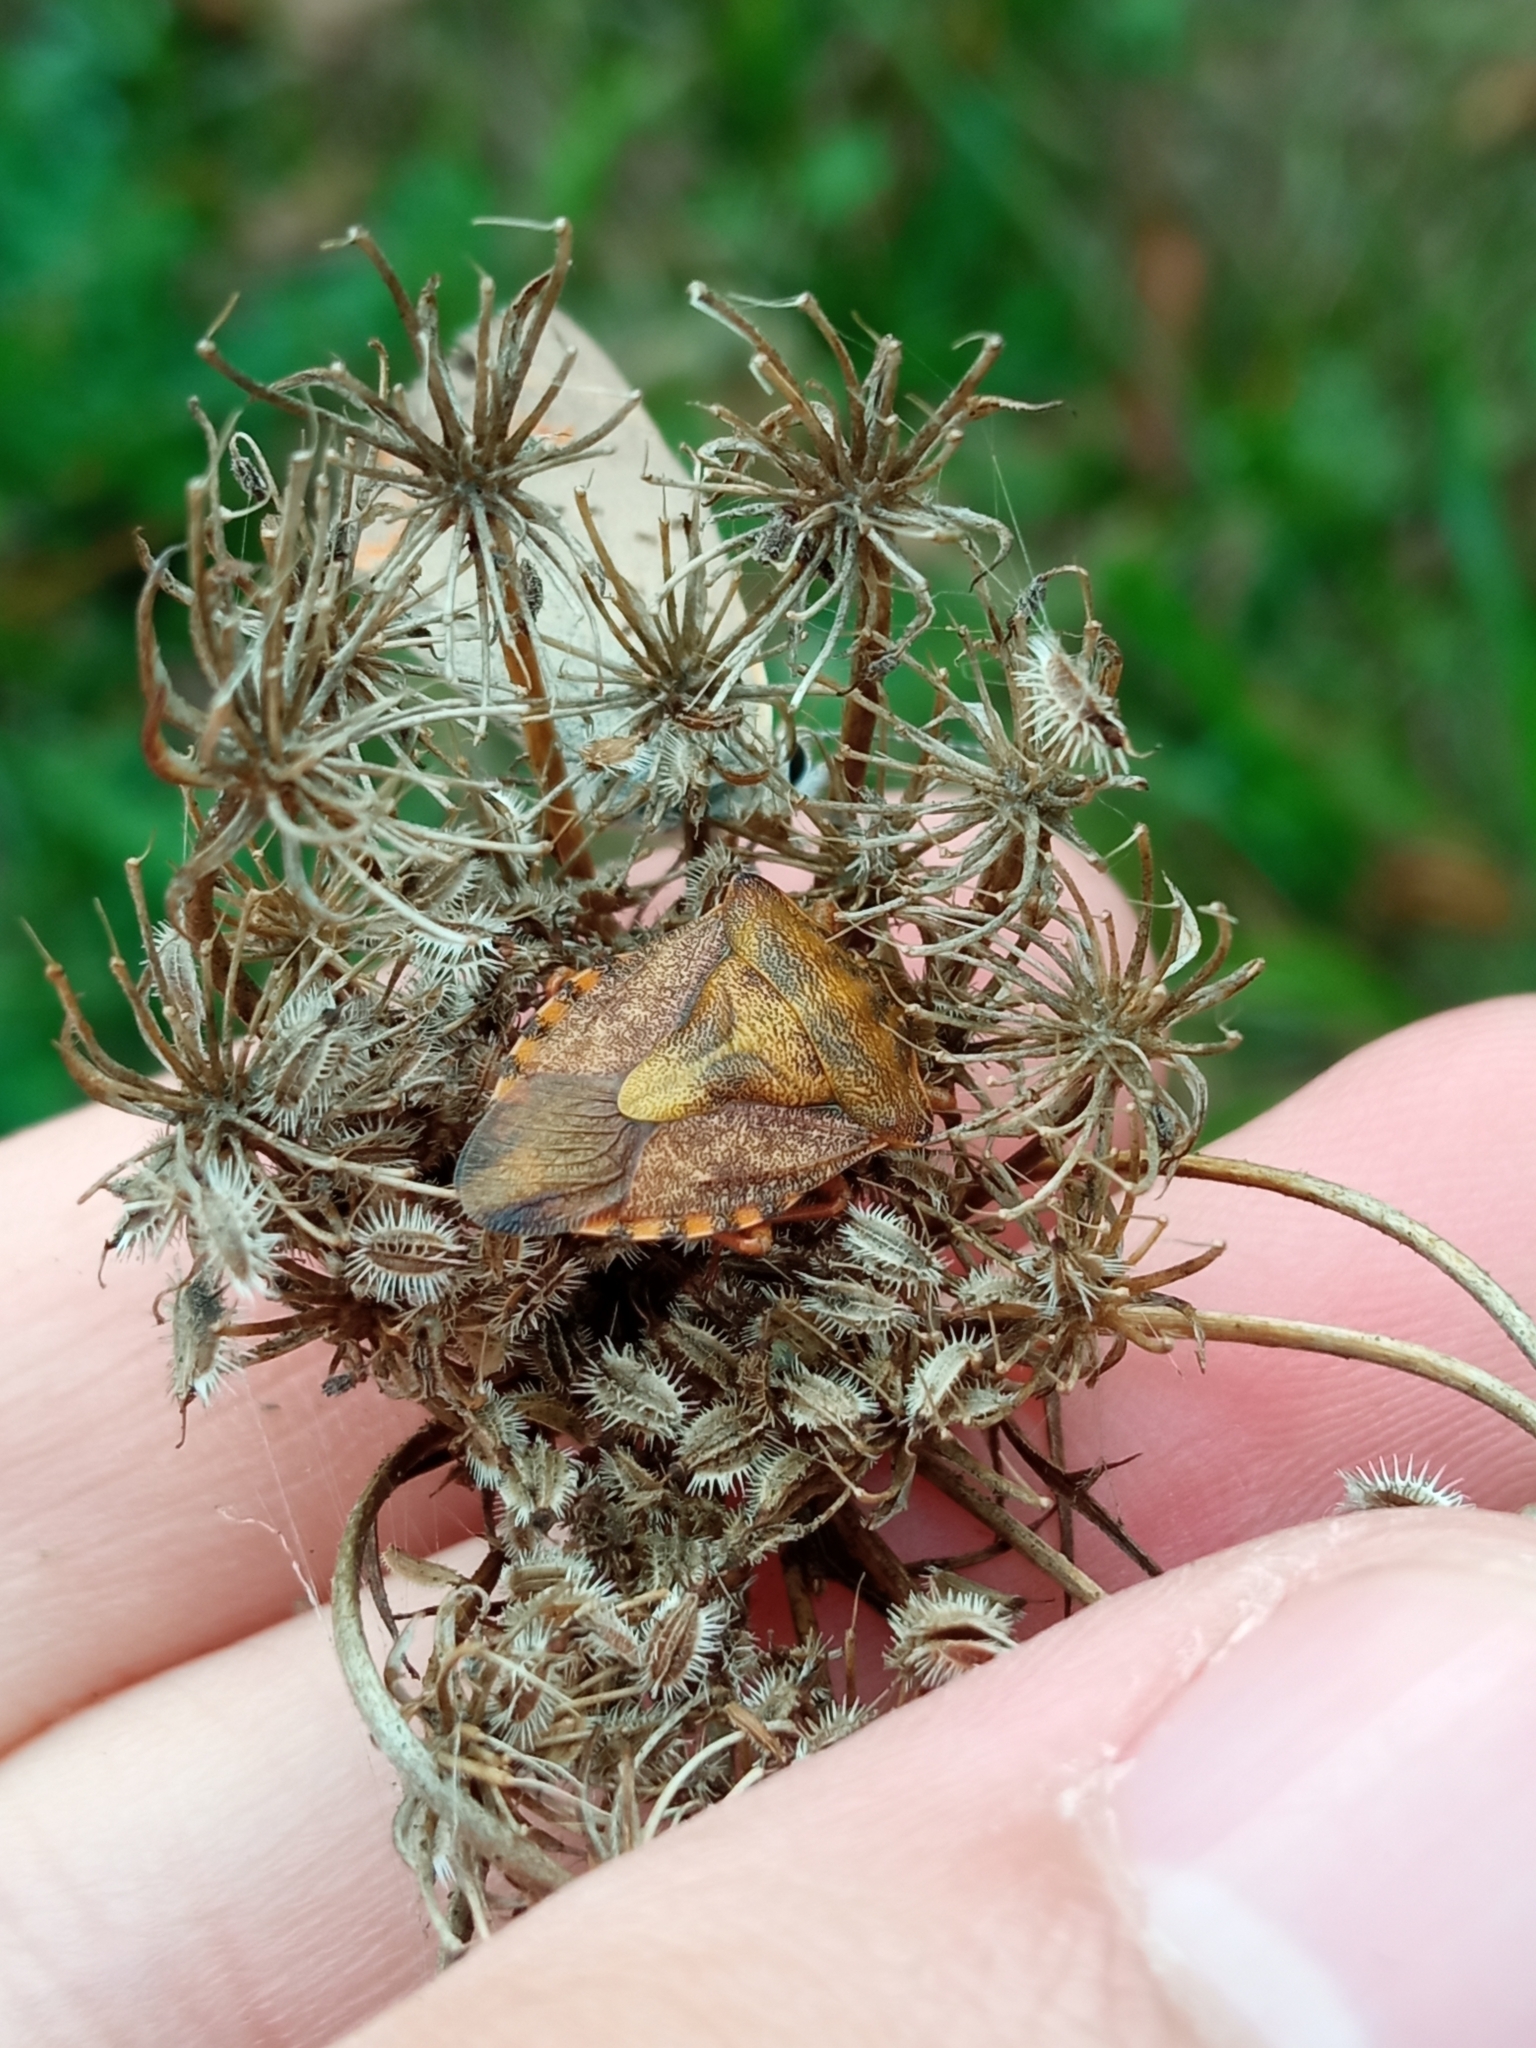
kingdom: Animalia
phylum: Arthropoda
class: Insecta
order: Hemiptera
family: Pentatomidae
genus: Carpocoris
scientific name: Carpocoris purpureipennis
